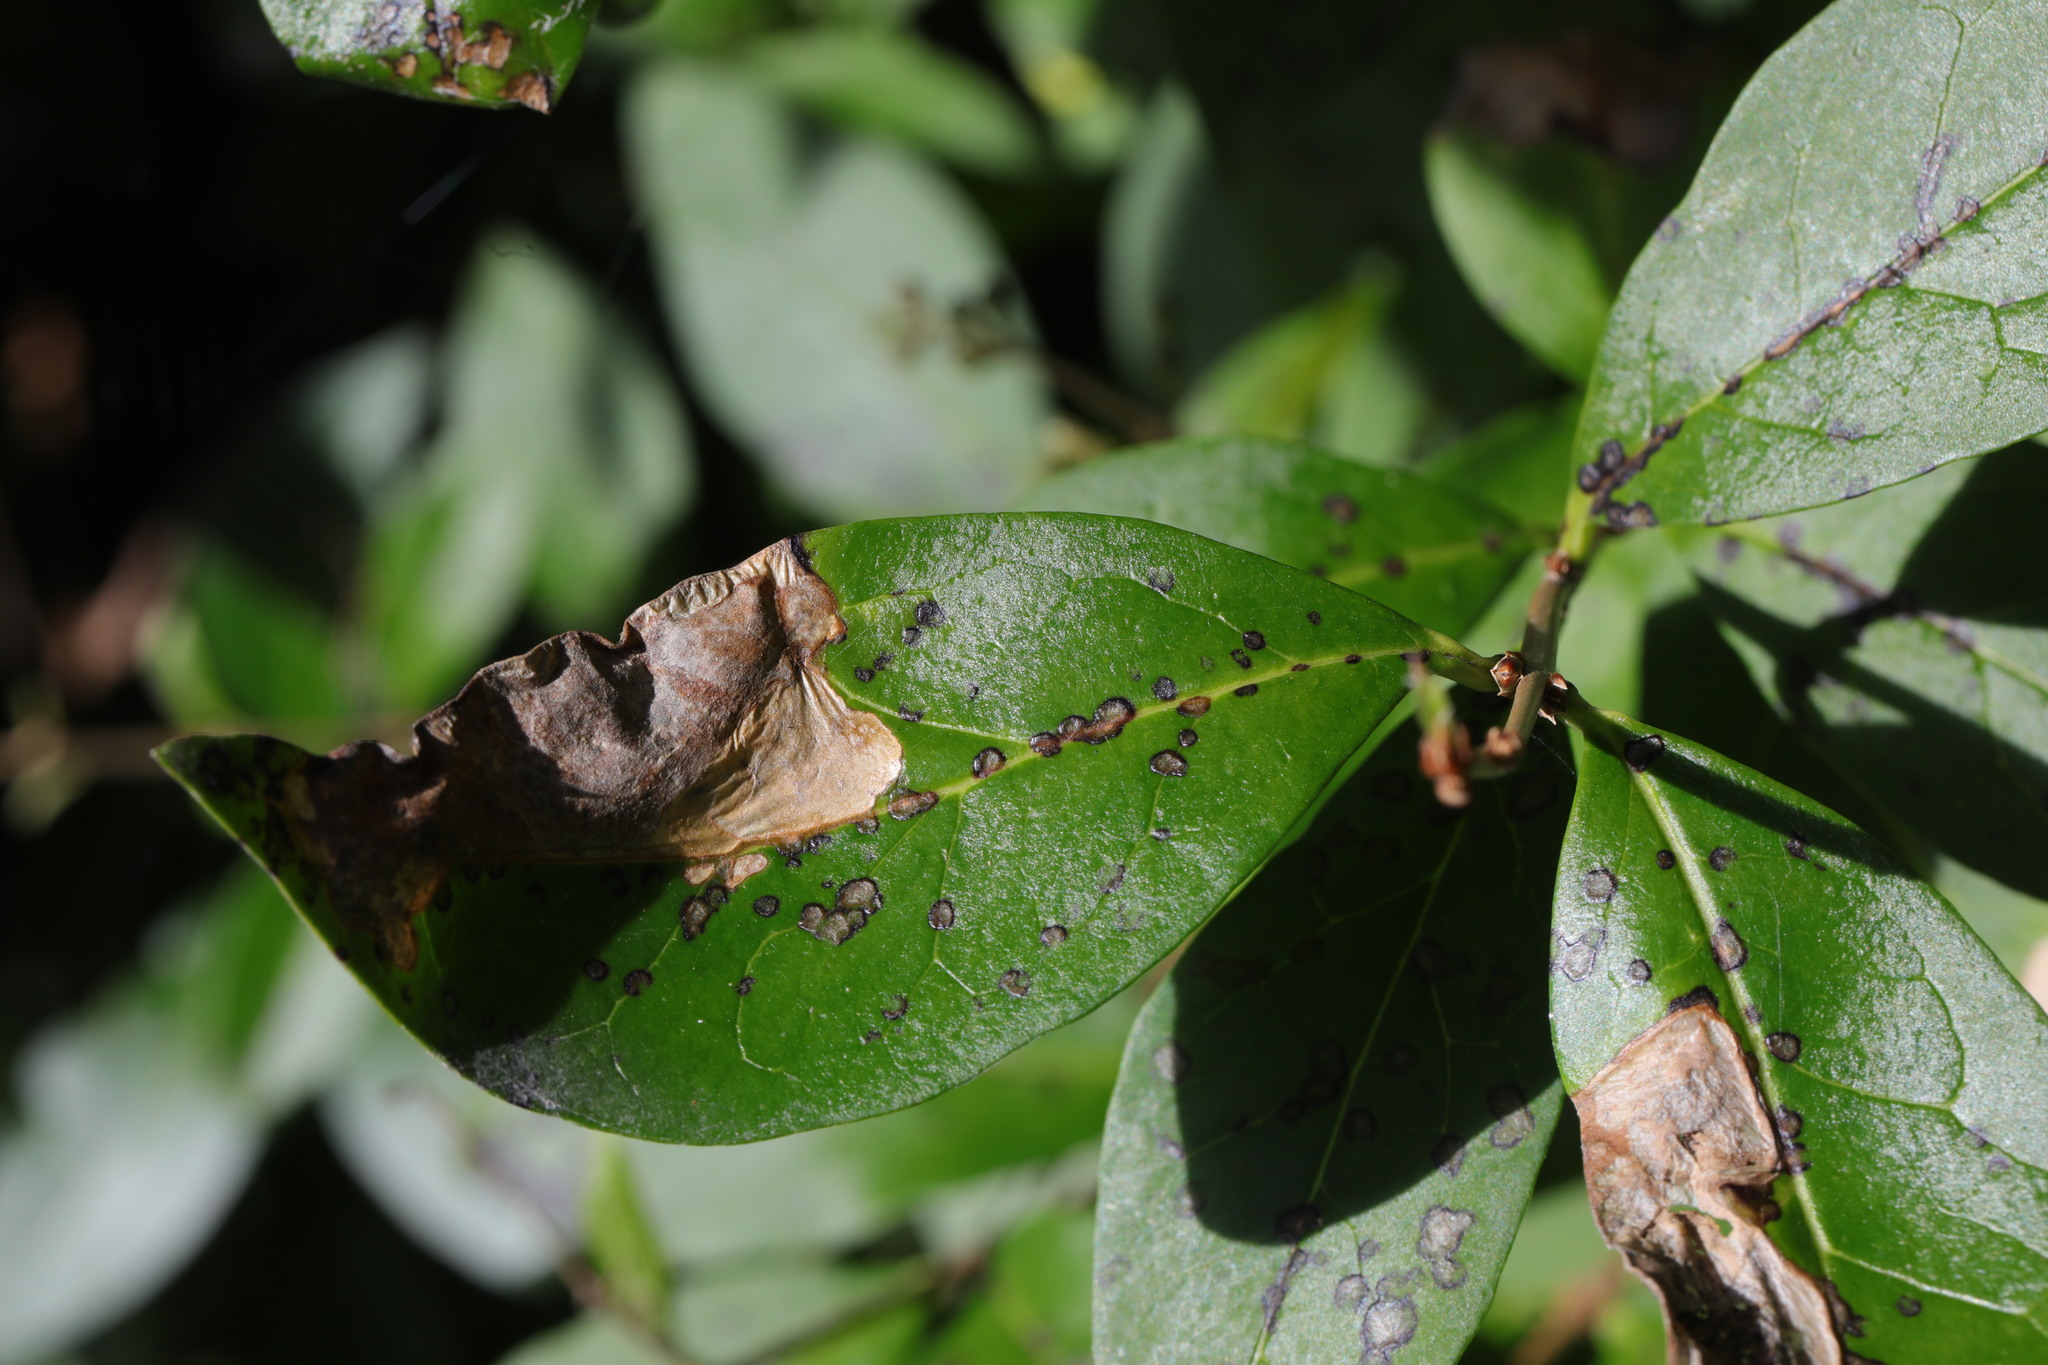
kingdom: Animalia
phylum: Arthropoda
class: Insecta
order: Lepidoptera
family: Gracillariidae
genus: Gracillaria
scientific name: Gracillaria syringella
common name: Common slender
